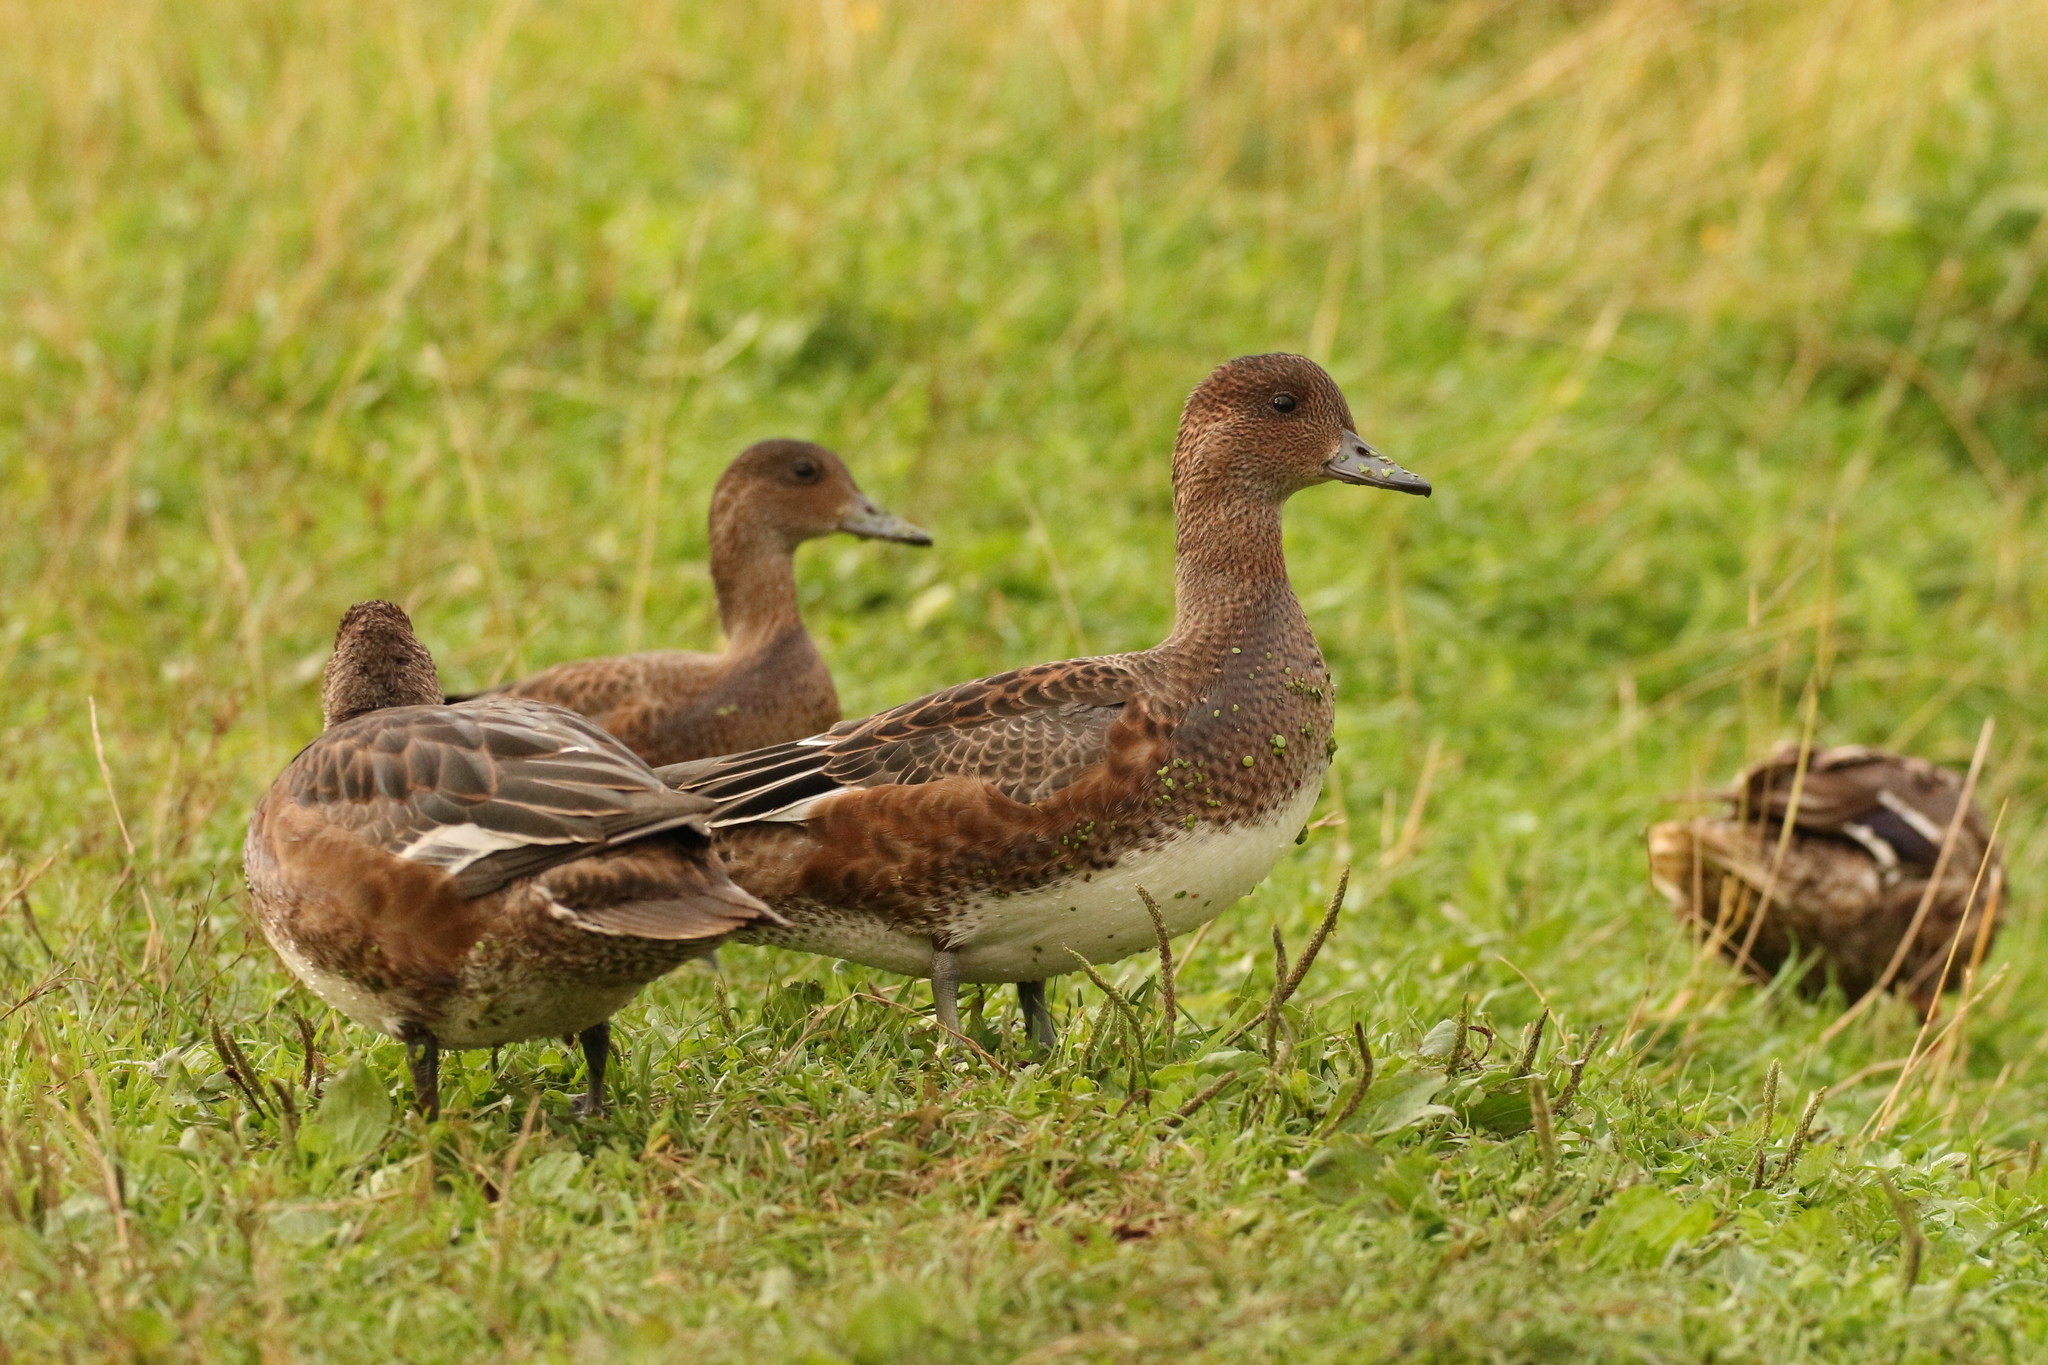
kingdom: Animalia
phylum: Chordata
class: Aves
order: Anseriformes
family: Anatidae
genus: Mareca
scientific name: Mareca penelope
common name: Eurasian wigeon
